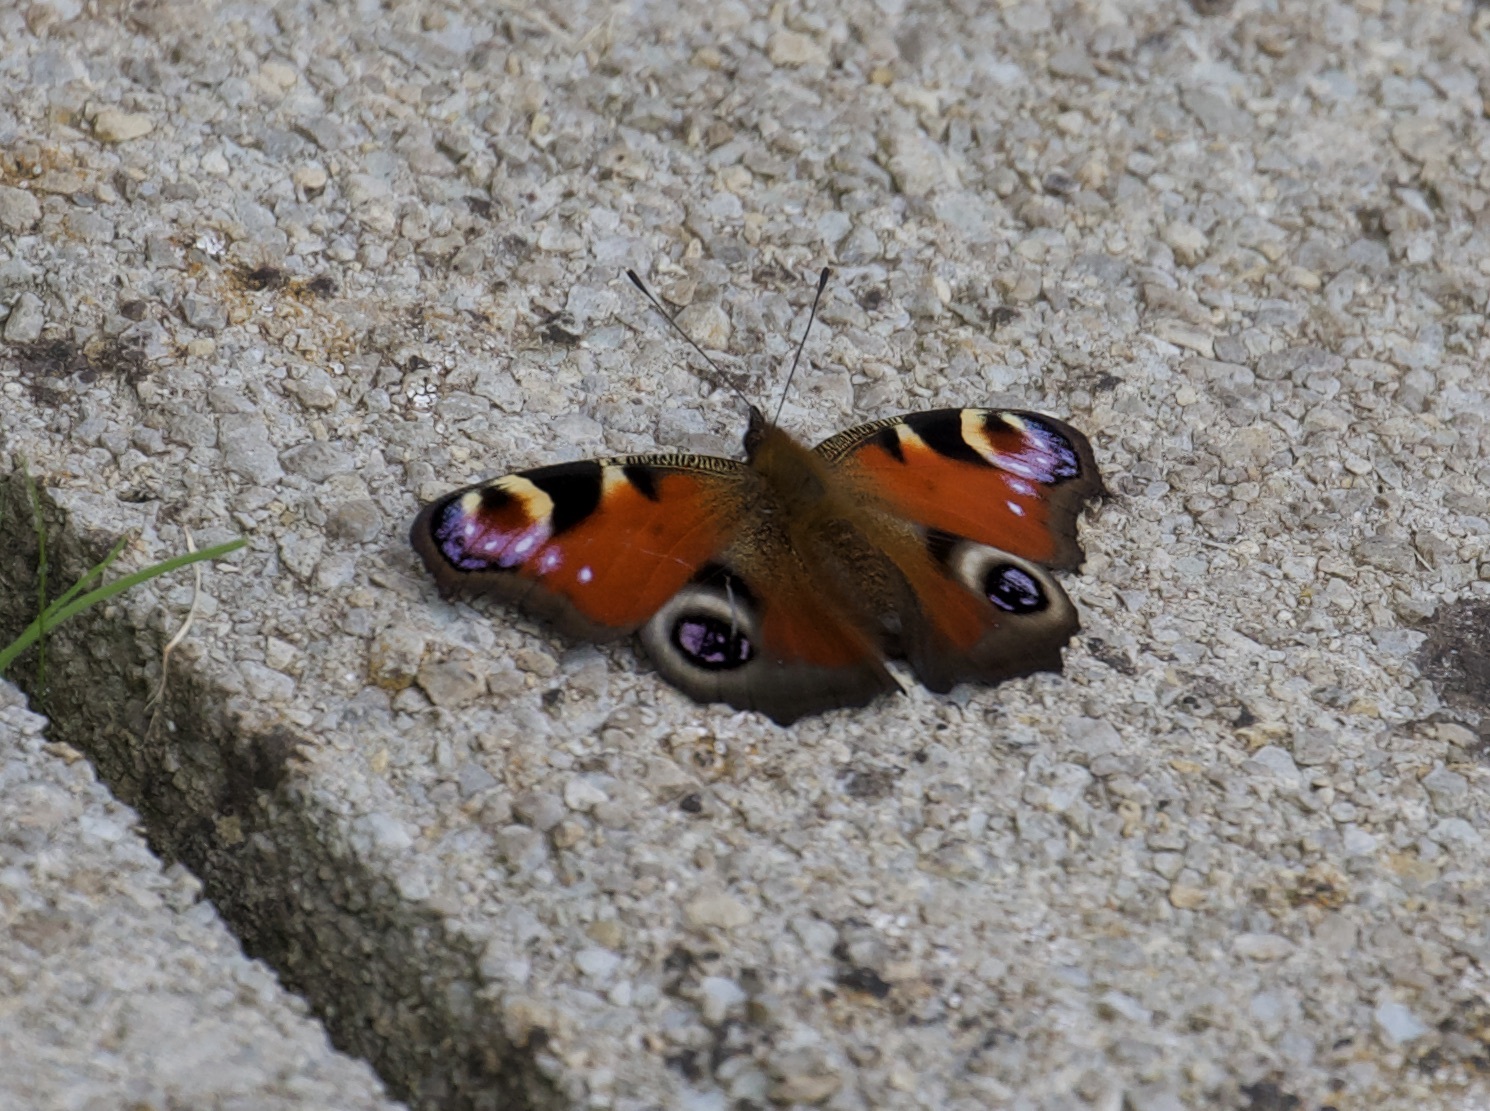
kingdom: Animalia
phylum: Arthropoda
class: Insecta
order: Lepidoptera
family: Nymphalidae
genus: Aglais
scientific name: Aglais io
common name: Peacock
